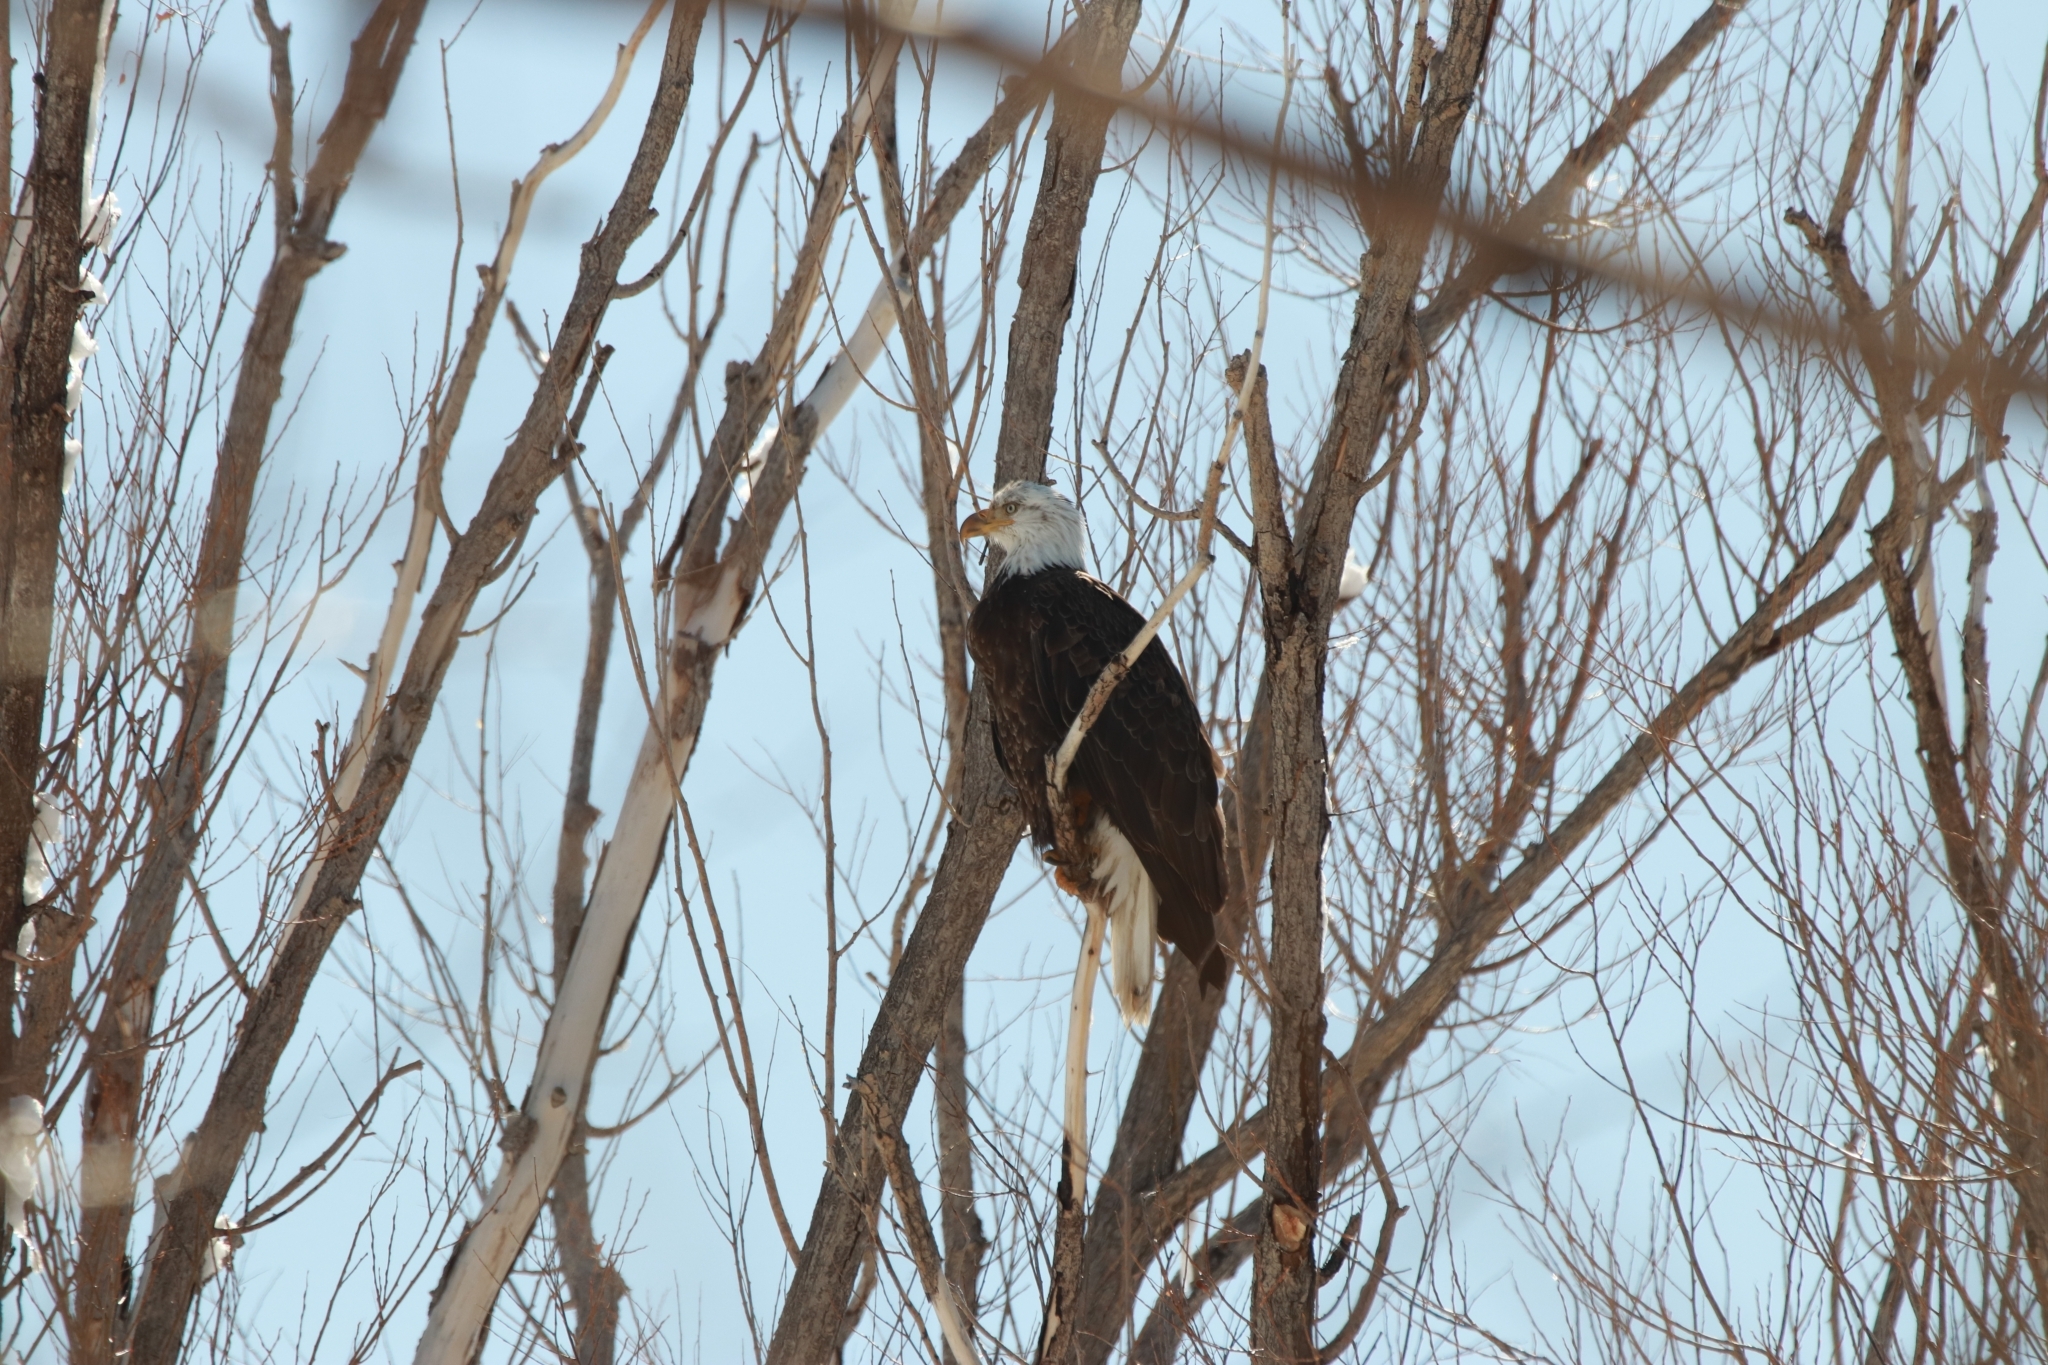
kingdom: Animalia
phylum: Chordata
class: Aves
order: Accipitriformes
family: Accipitridae
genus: Haliaeetus
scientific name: Haliaeetus leucocephalus
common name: Bald eagle
